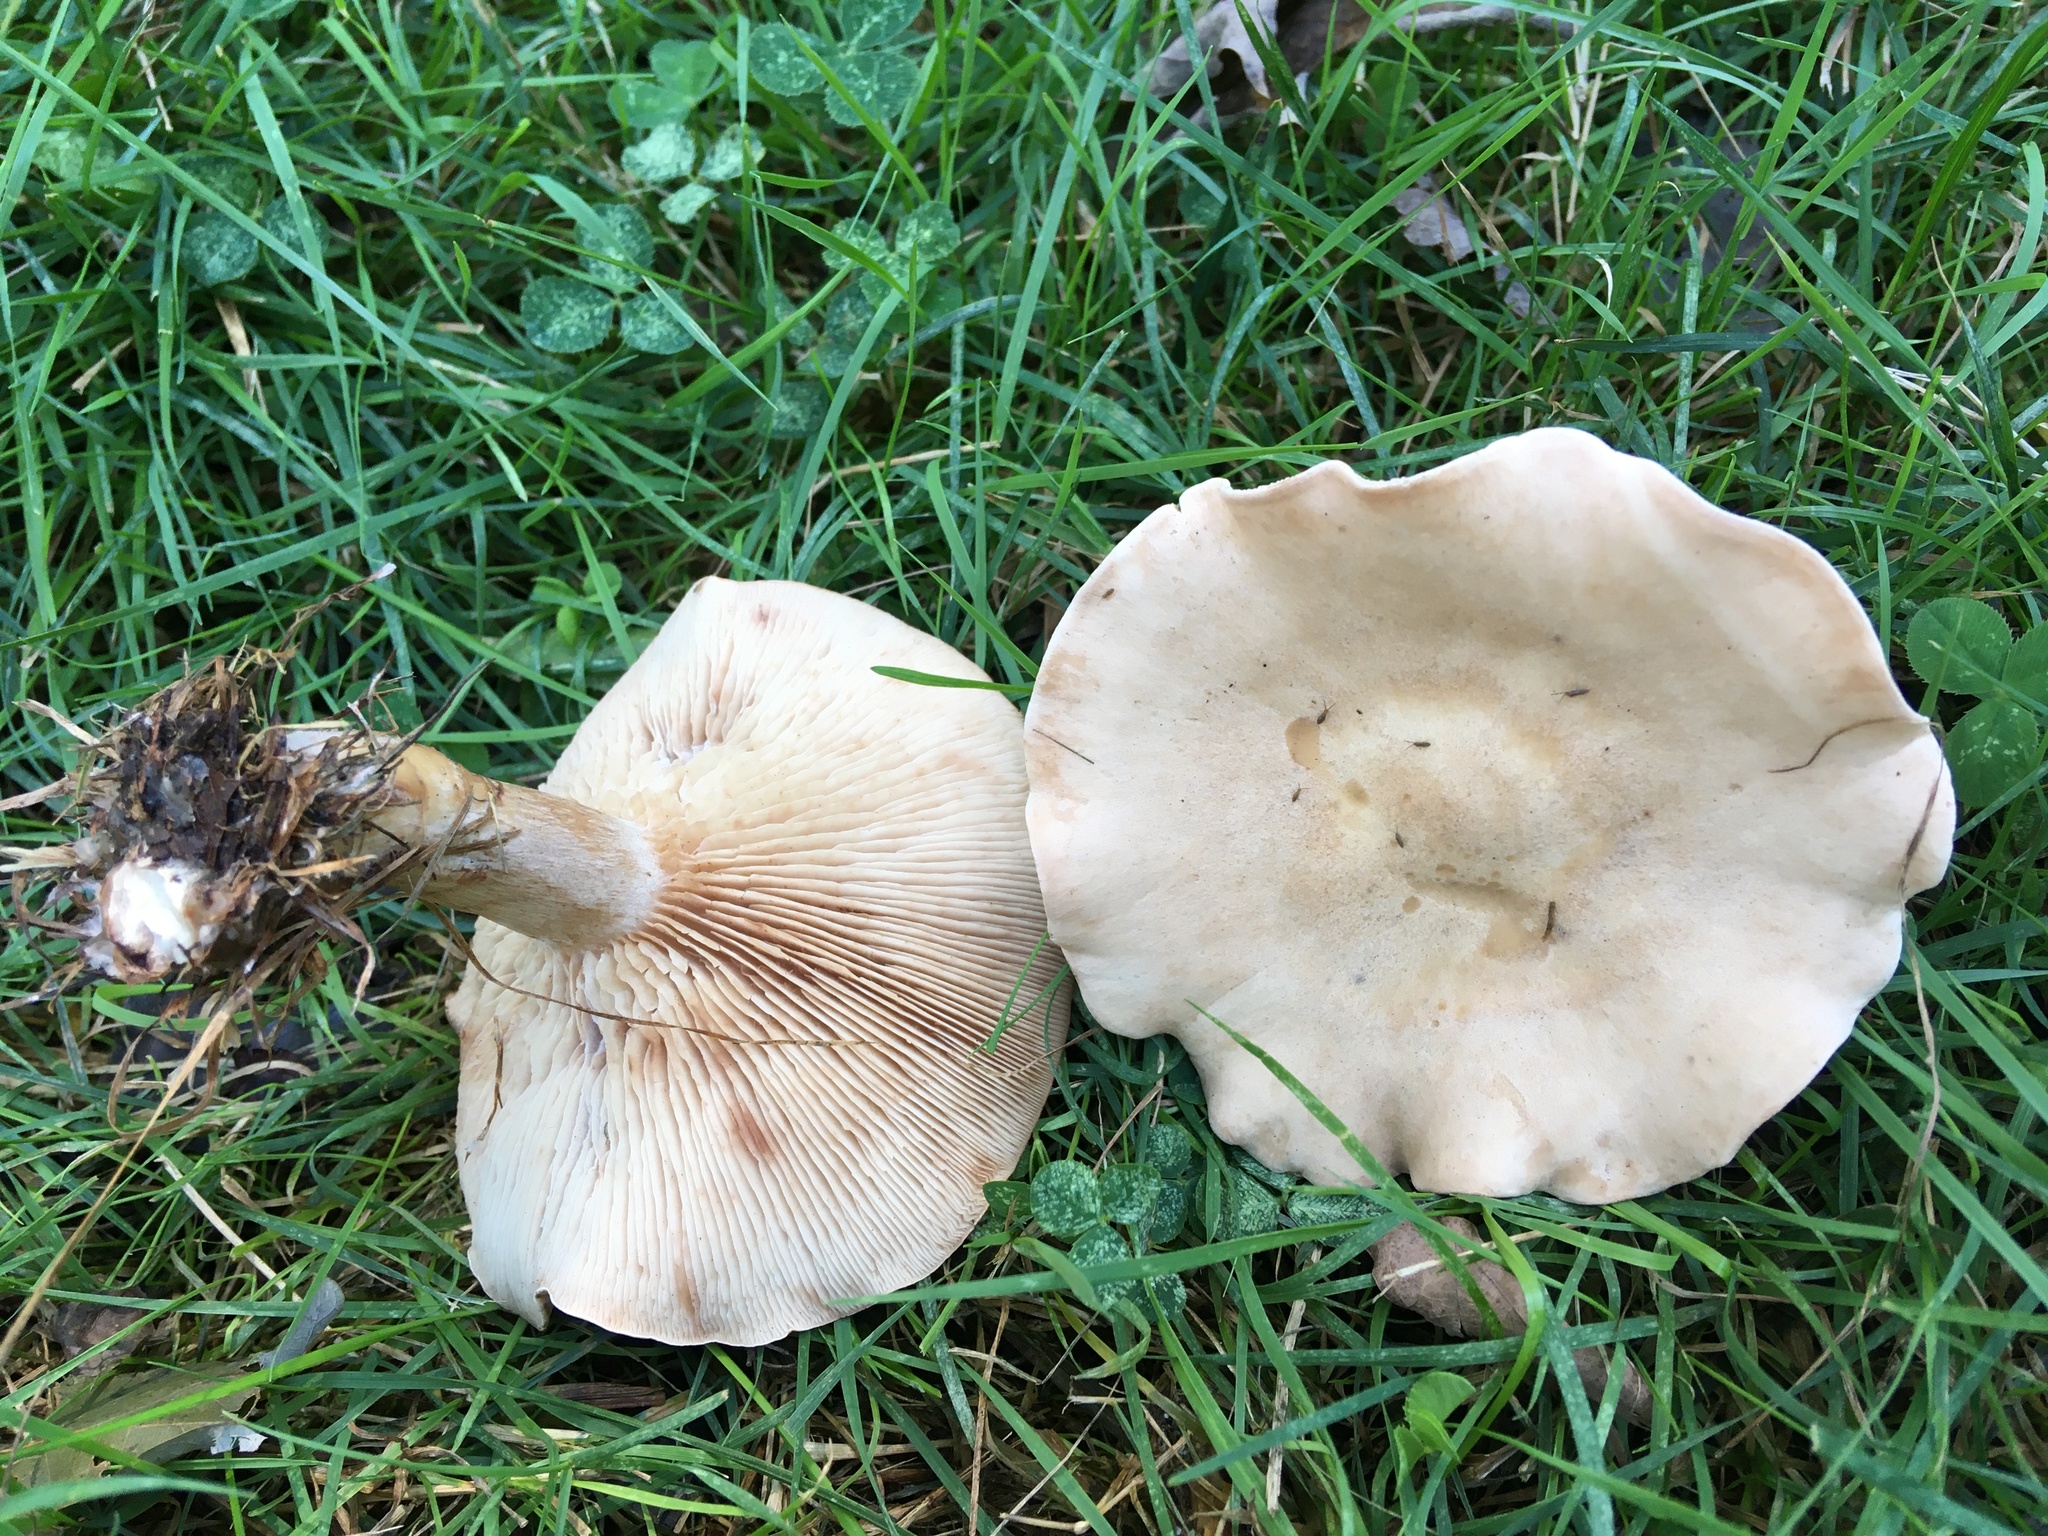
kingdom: Fungi
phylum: Basidiomycota
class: Agaricomycetes
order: Agaricales
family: Entolomataceae
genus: Rhodocybe
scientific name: Rhodocybe roseiavellanea
